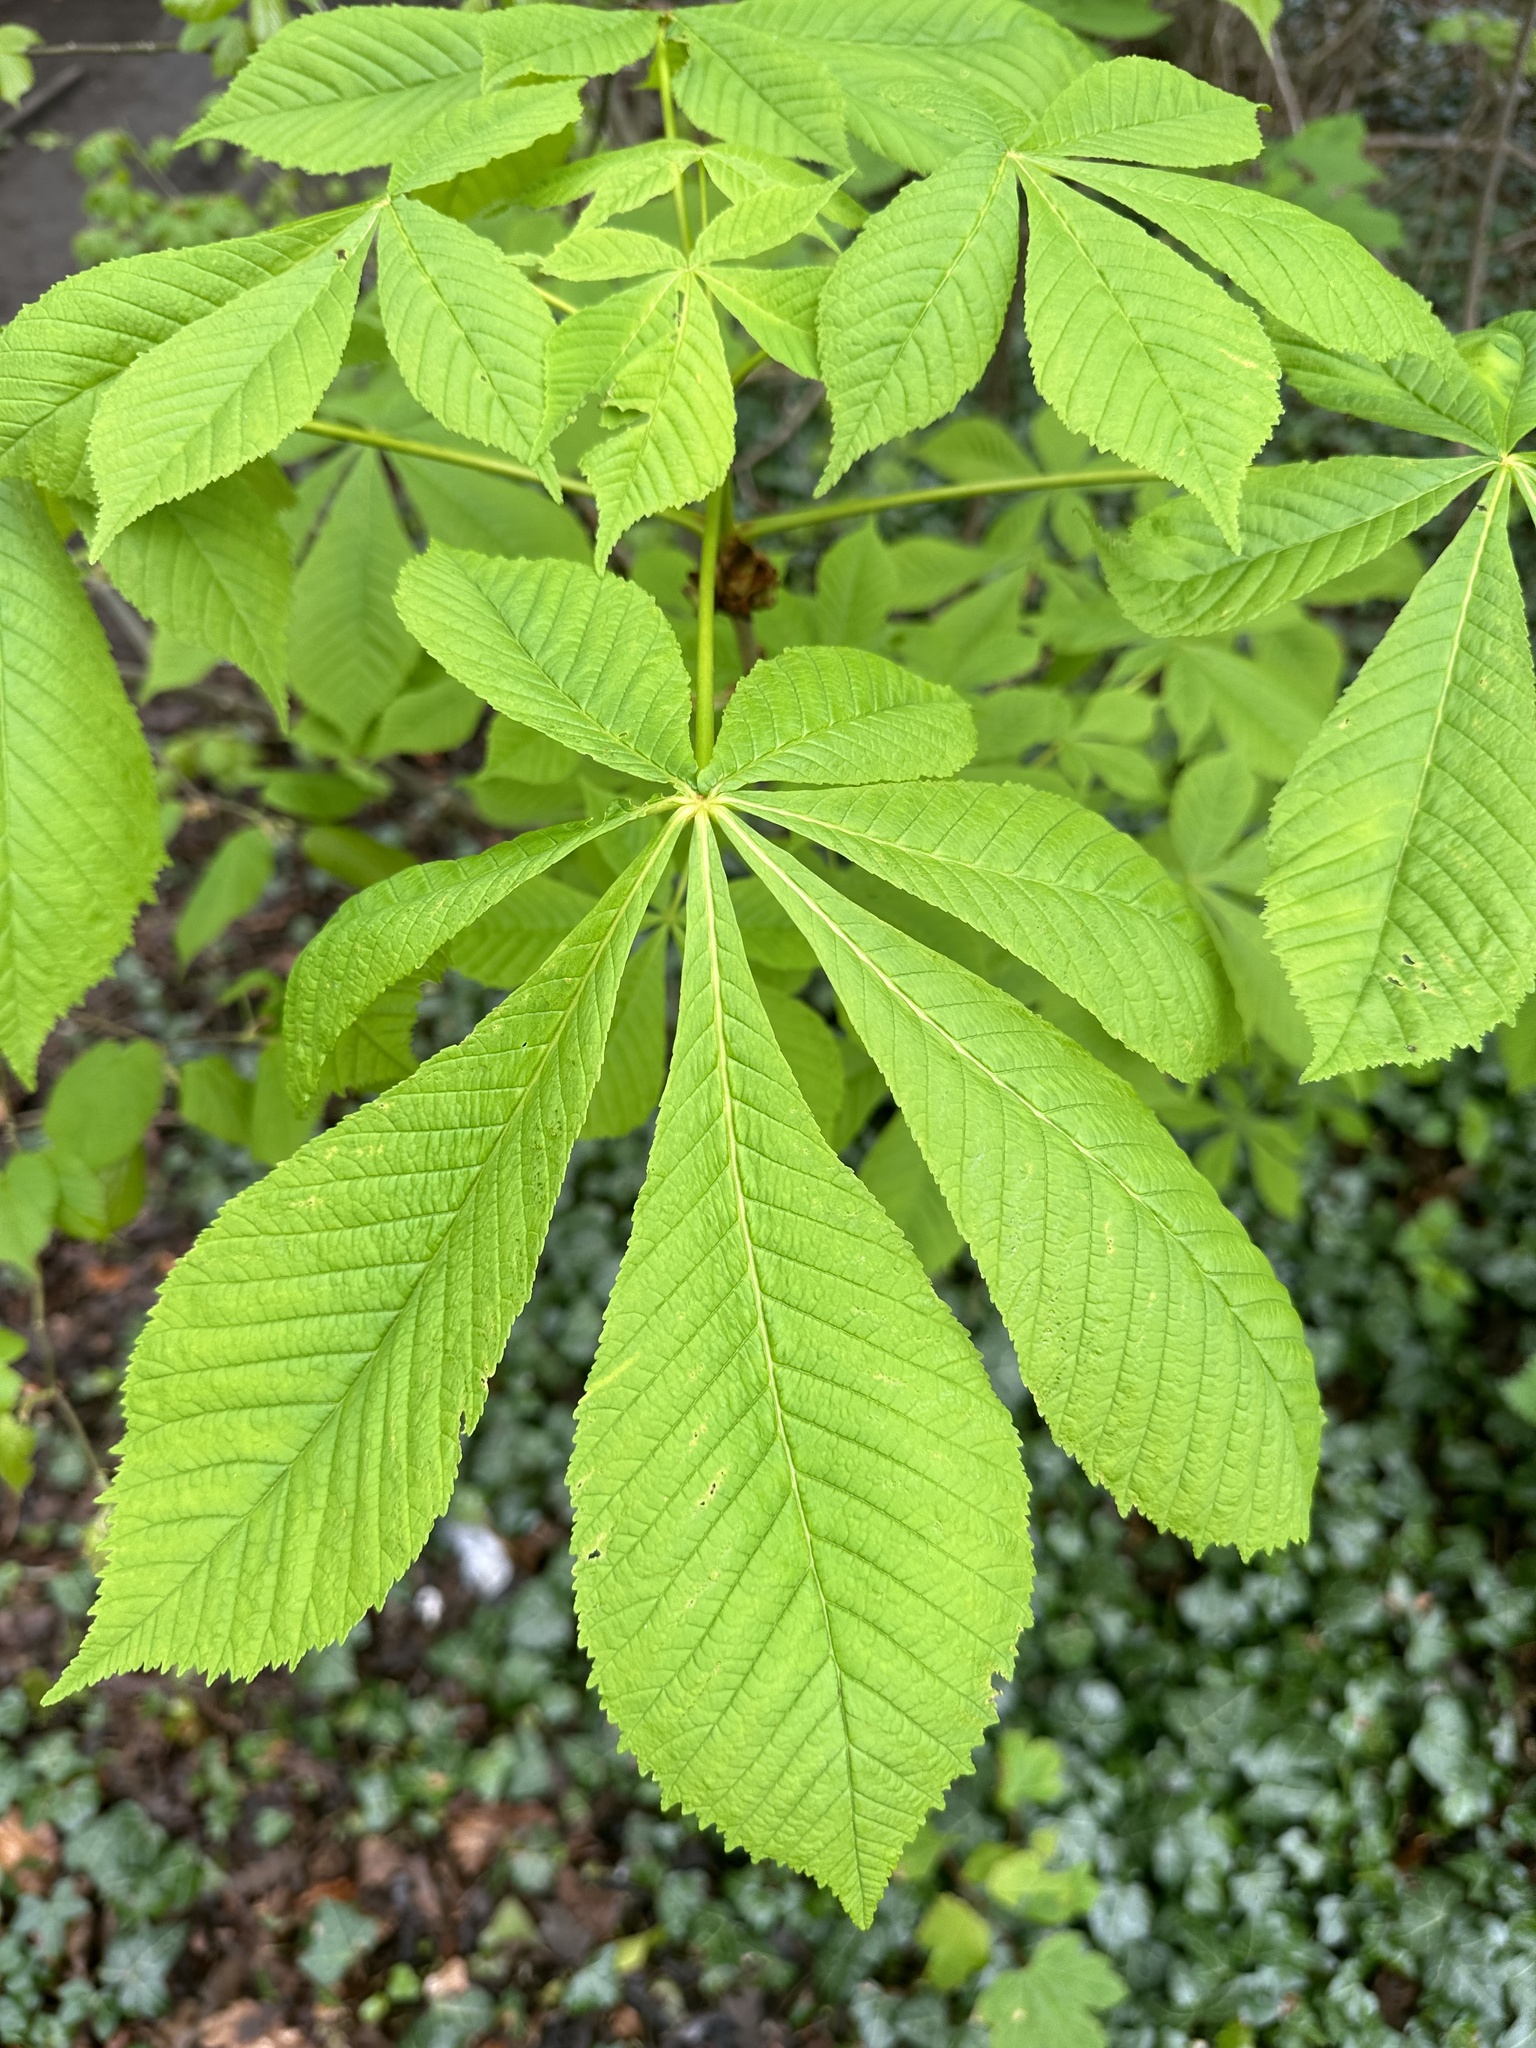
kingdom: Plantae
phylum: Tracheophyta
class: Magnoliopsida
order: Sapindales
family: Sapindaceae
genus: Aesculus
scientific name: Aesculus hippocastanum
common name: Horse-chestnut
